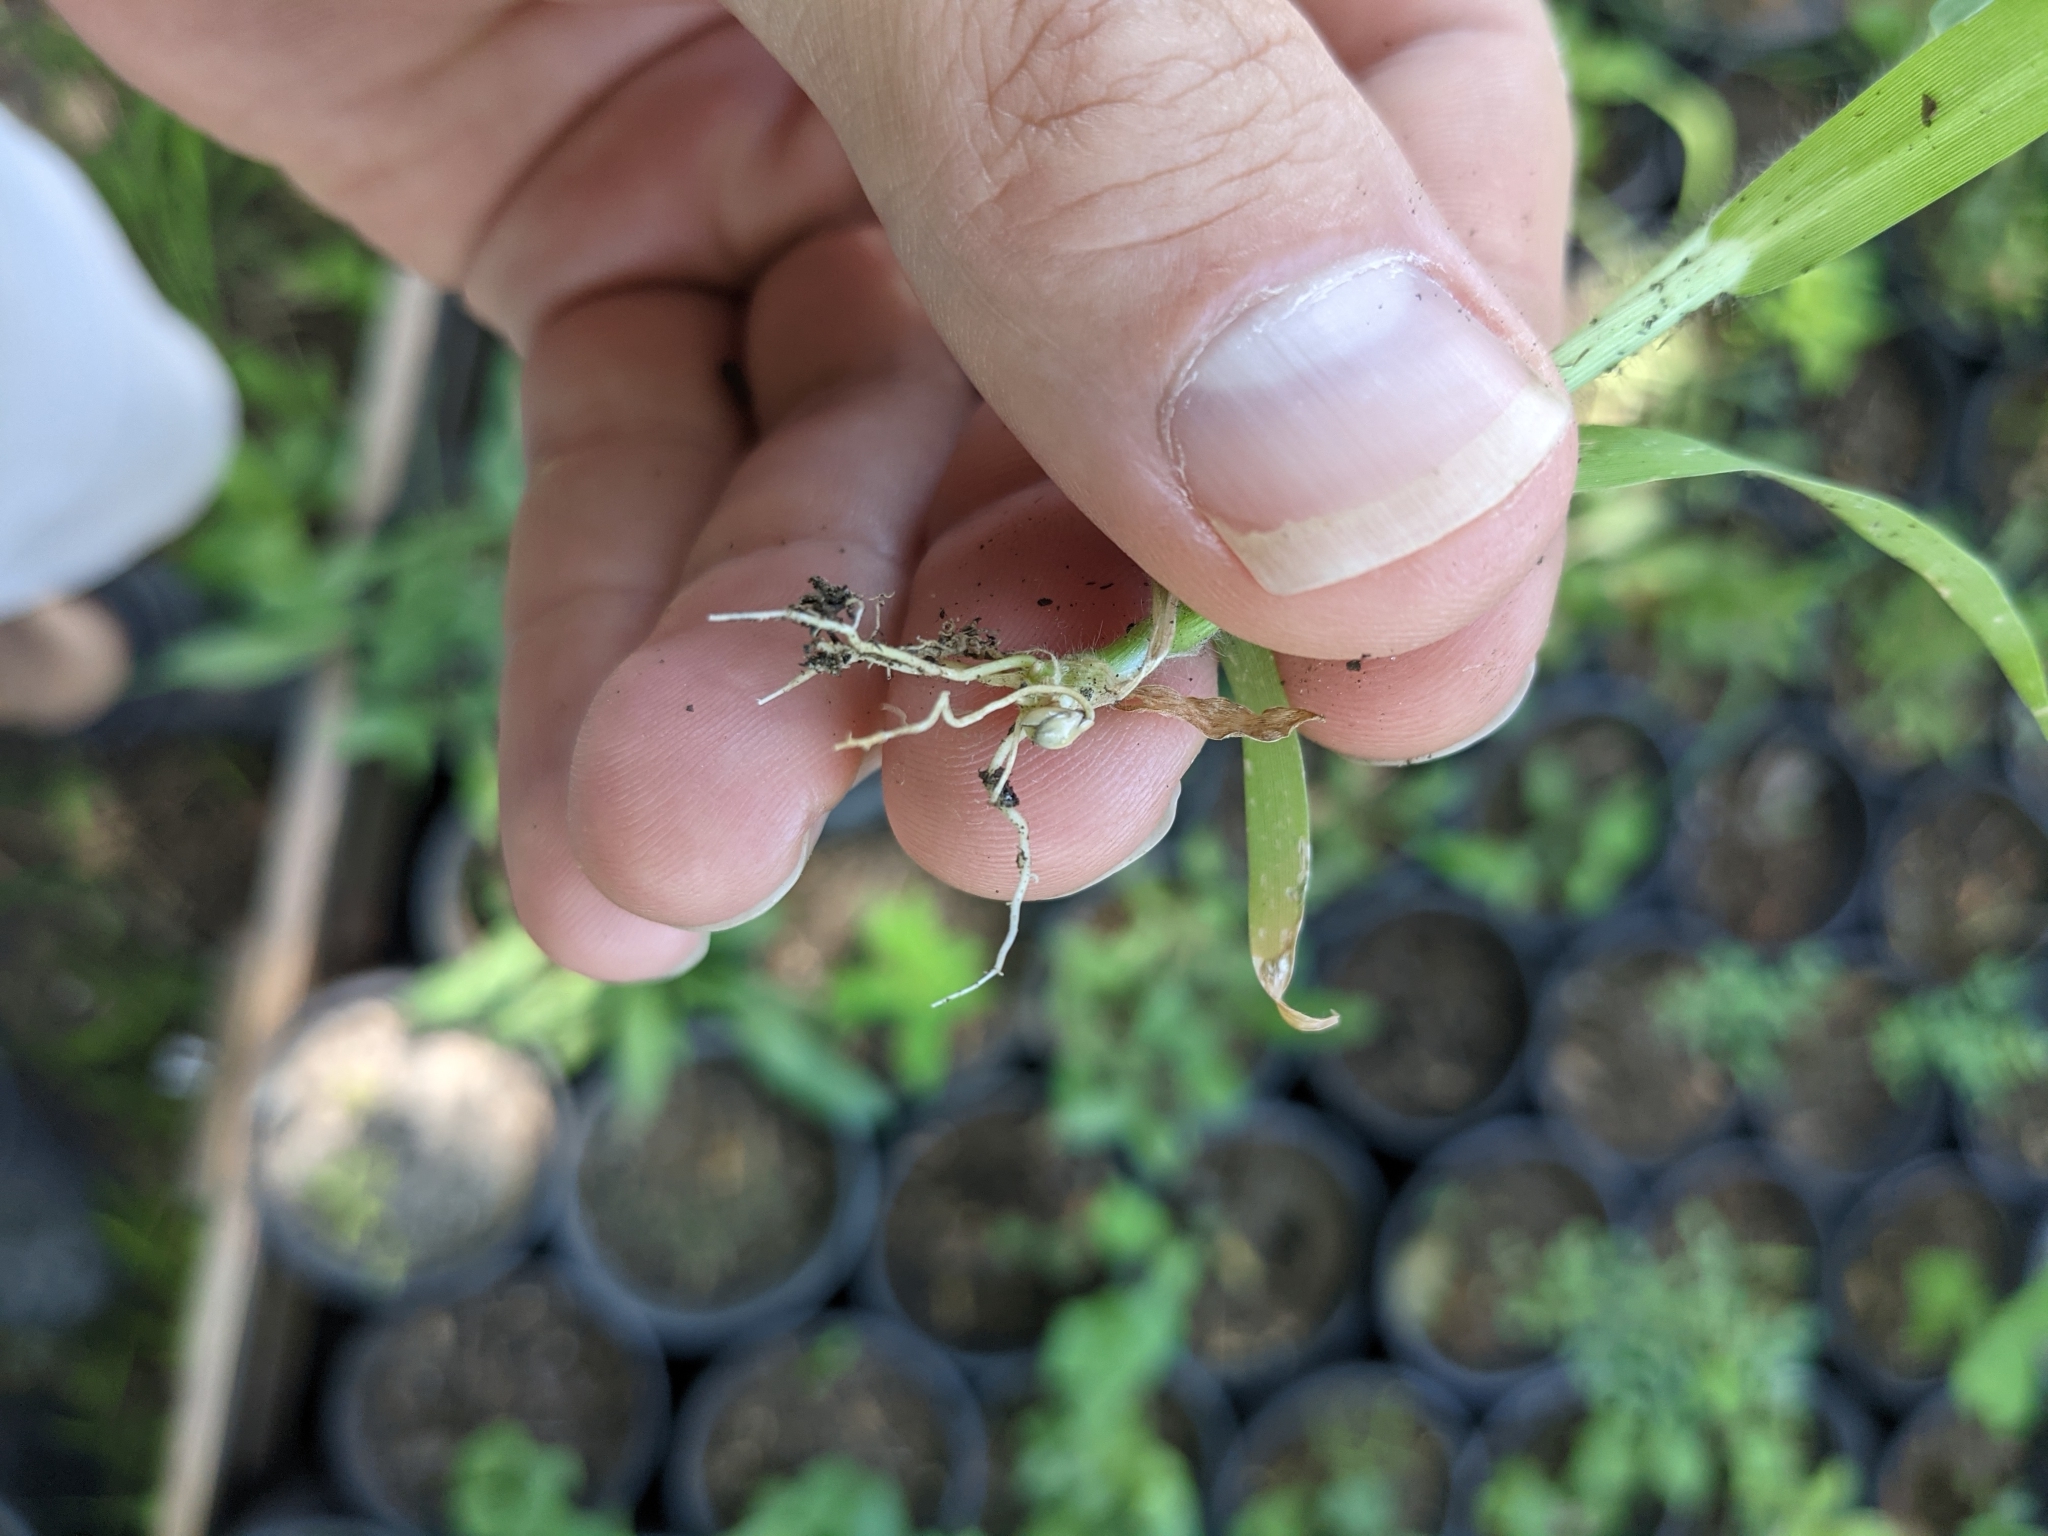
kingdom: Plantae
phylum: Tracheophyta
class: Liliopsida
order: Poales
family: Poaceae
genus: Panicum
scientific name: Panicum miliaceum
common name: Common millet
